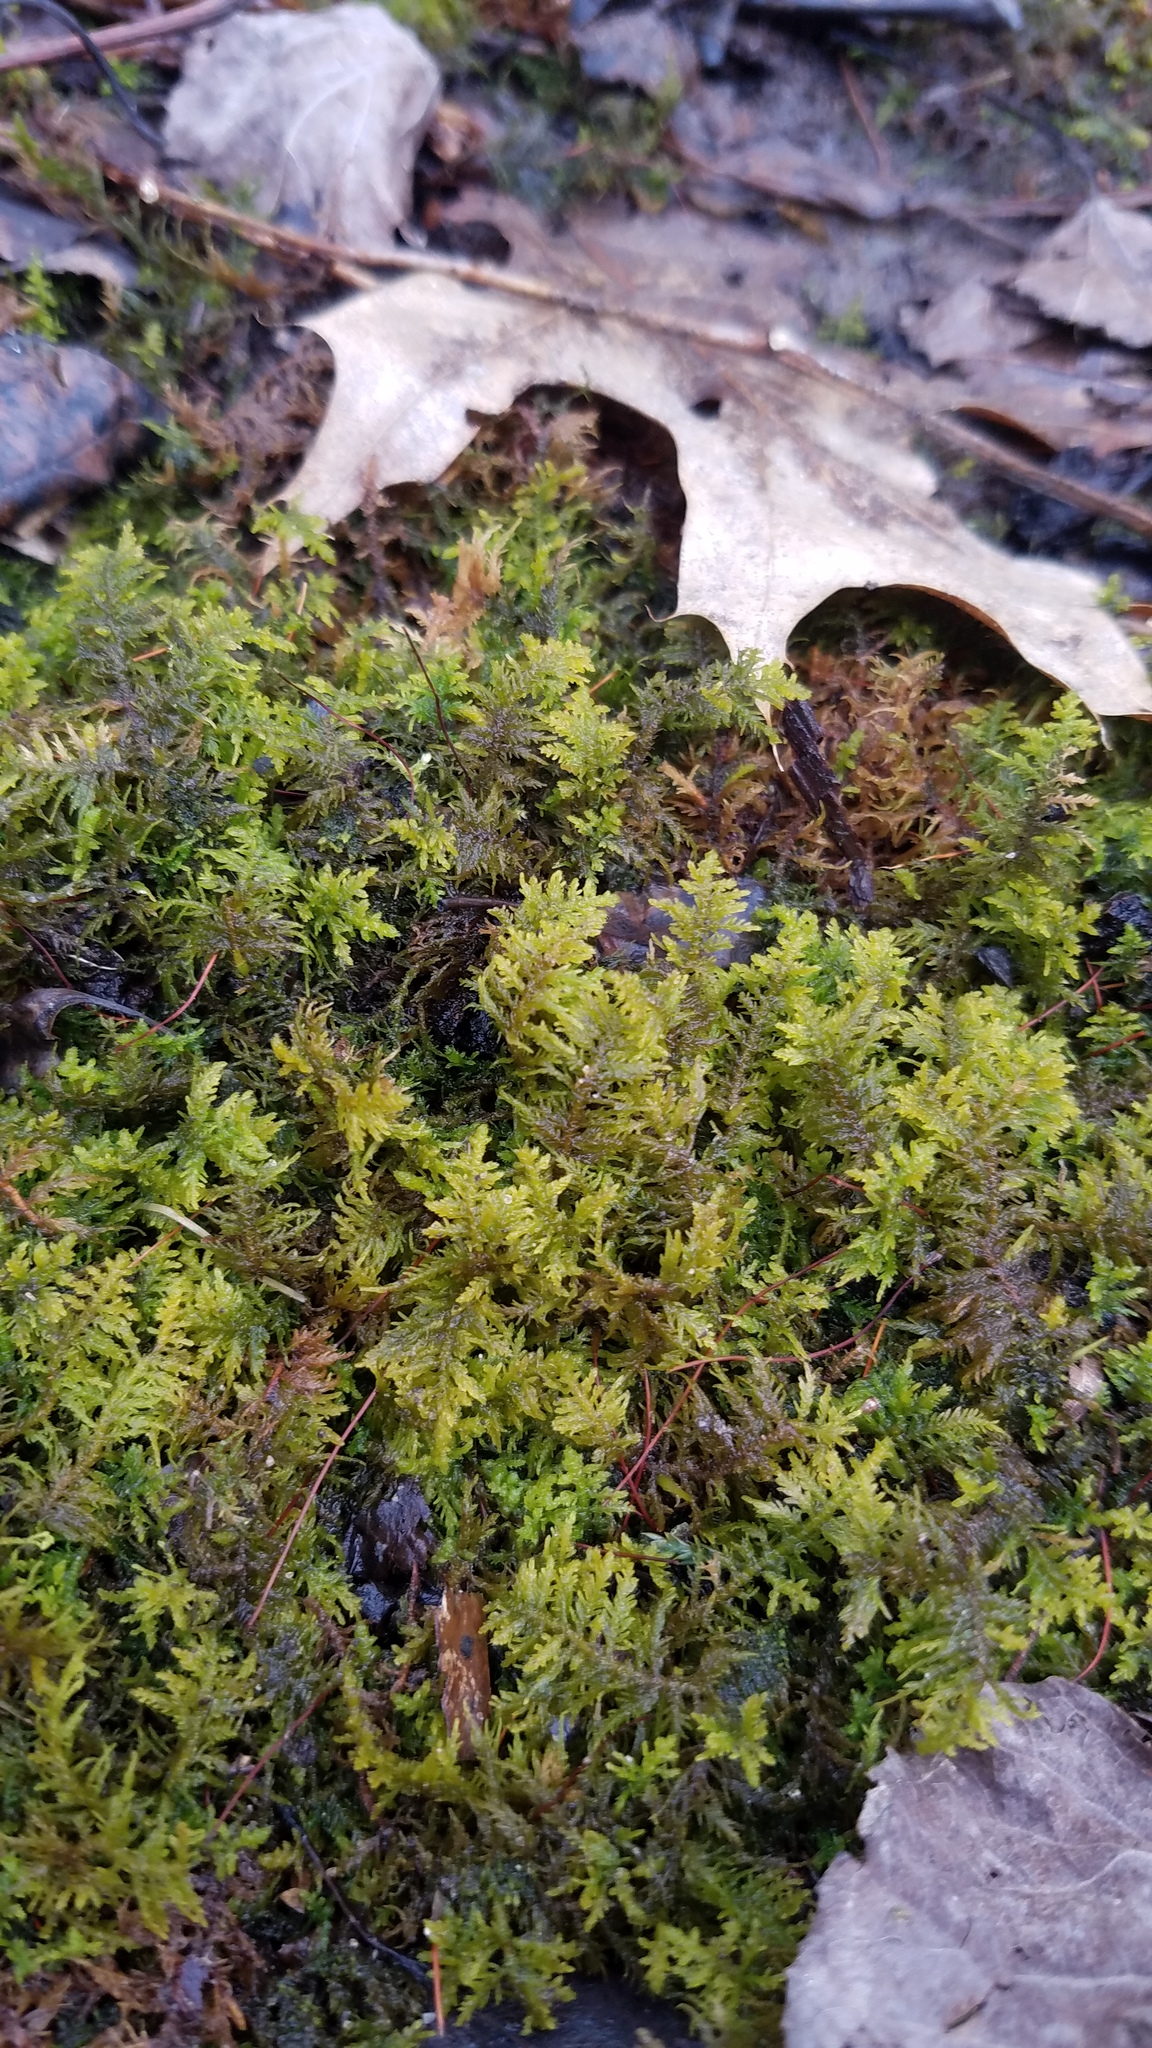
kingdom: Plantae
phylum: Bryophyta
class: Bryopsida
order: Hypnales
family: Thuidiaceae
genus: Thuidium
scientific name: Thuidium delicatulum
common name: Delicate fern moss
